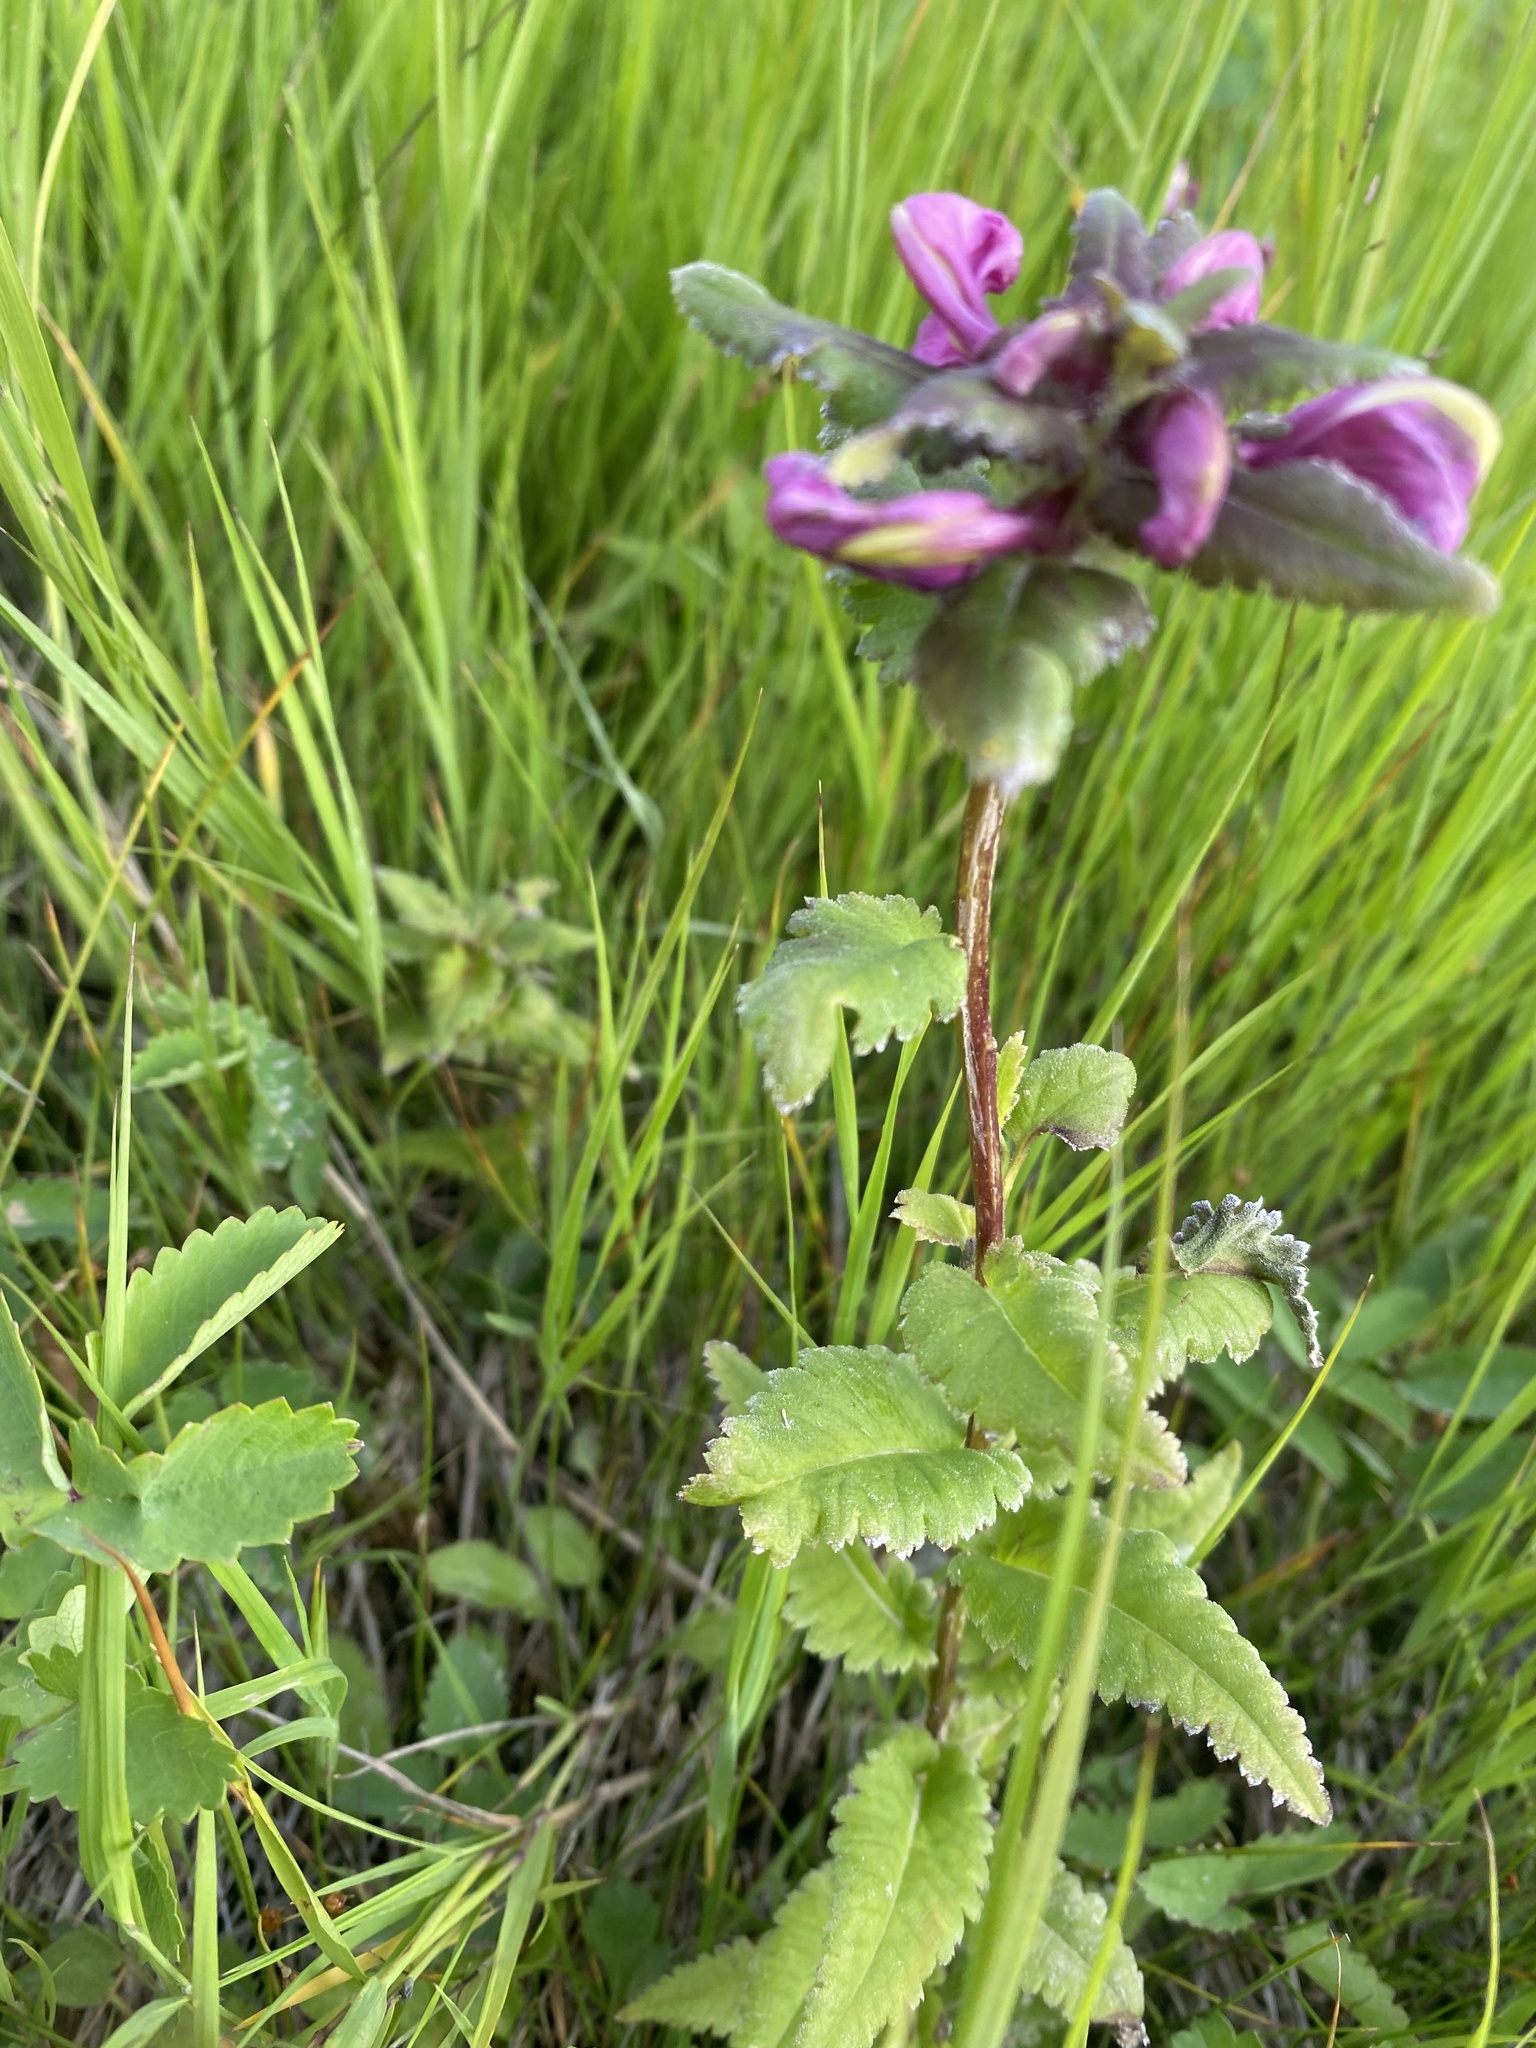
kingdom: Plantae
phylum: Tracheophyta
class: Magnoliopsida
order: Lamiales
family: Orobanchaceae
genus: Pedicularis
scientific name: Pedicularis resupinata
